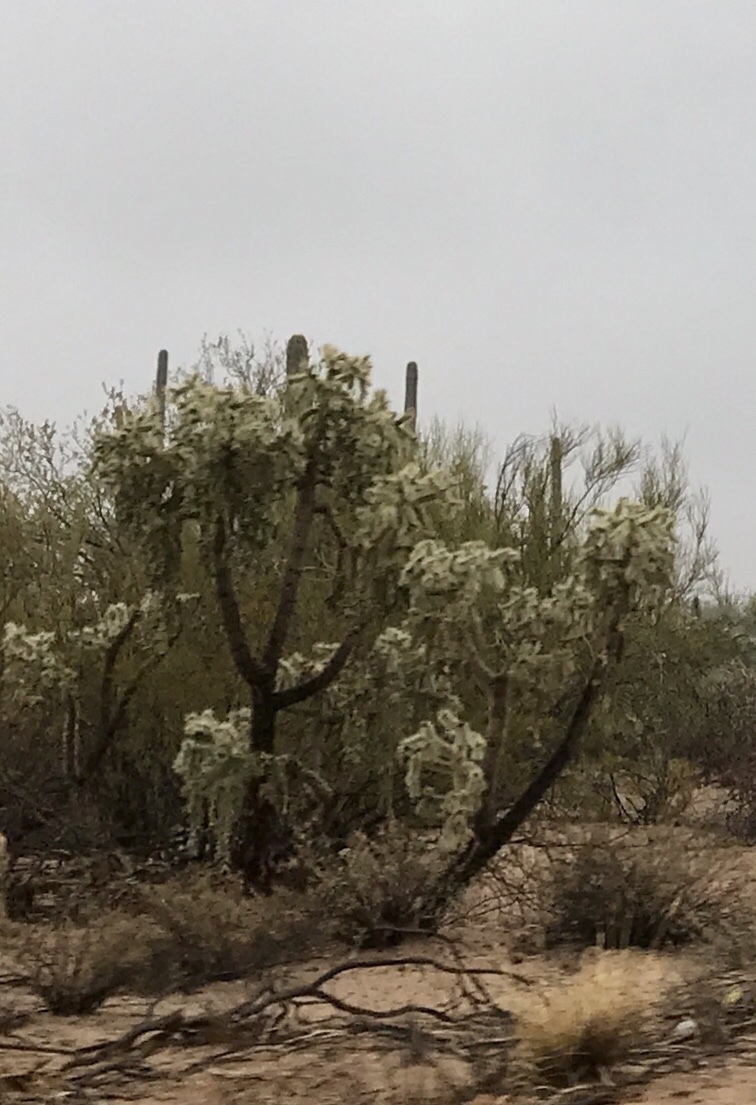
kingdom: Plantae
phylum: Tracheophyta
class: Magnoliopsida
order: Caryophyllales
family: Cactaceae
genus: Cylindropuntia
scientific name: Cylindropuntia fulgida
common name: Jumping cholla
